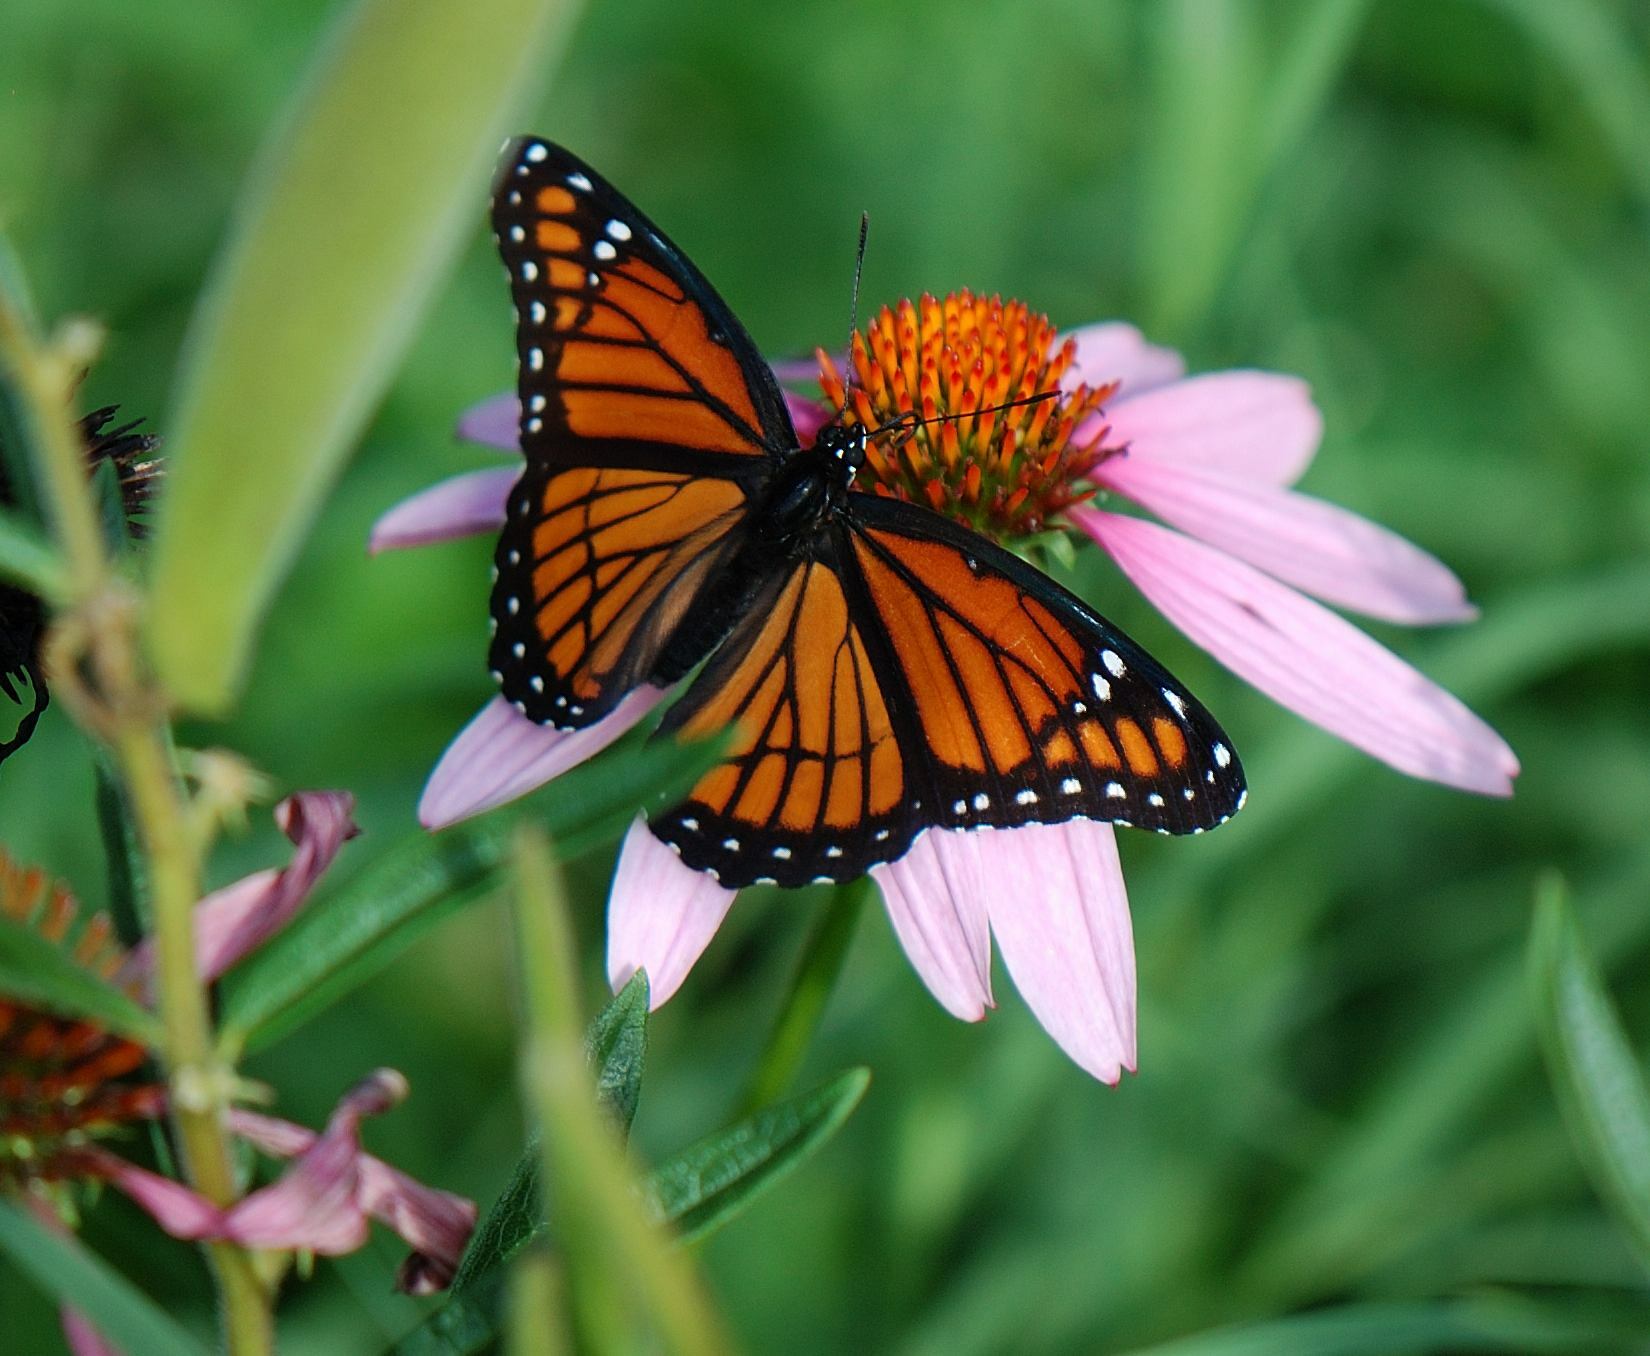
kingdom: Animalia
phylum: Arthropoda
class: Insecta
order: Lepidoptera
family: Nymphalidae
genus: Limenitis
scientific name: Limenitis archippus
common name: Viceroy
